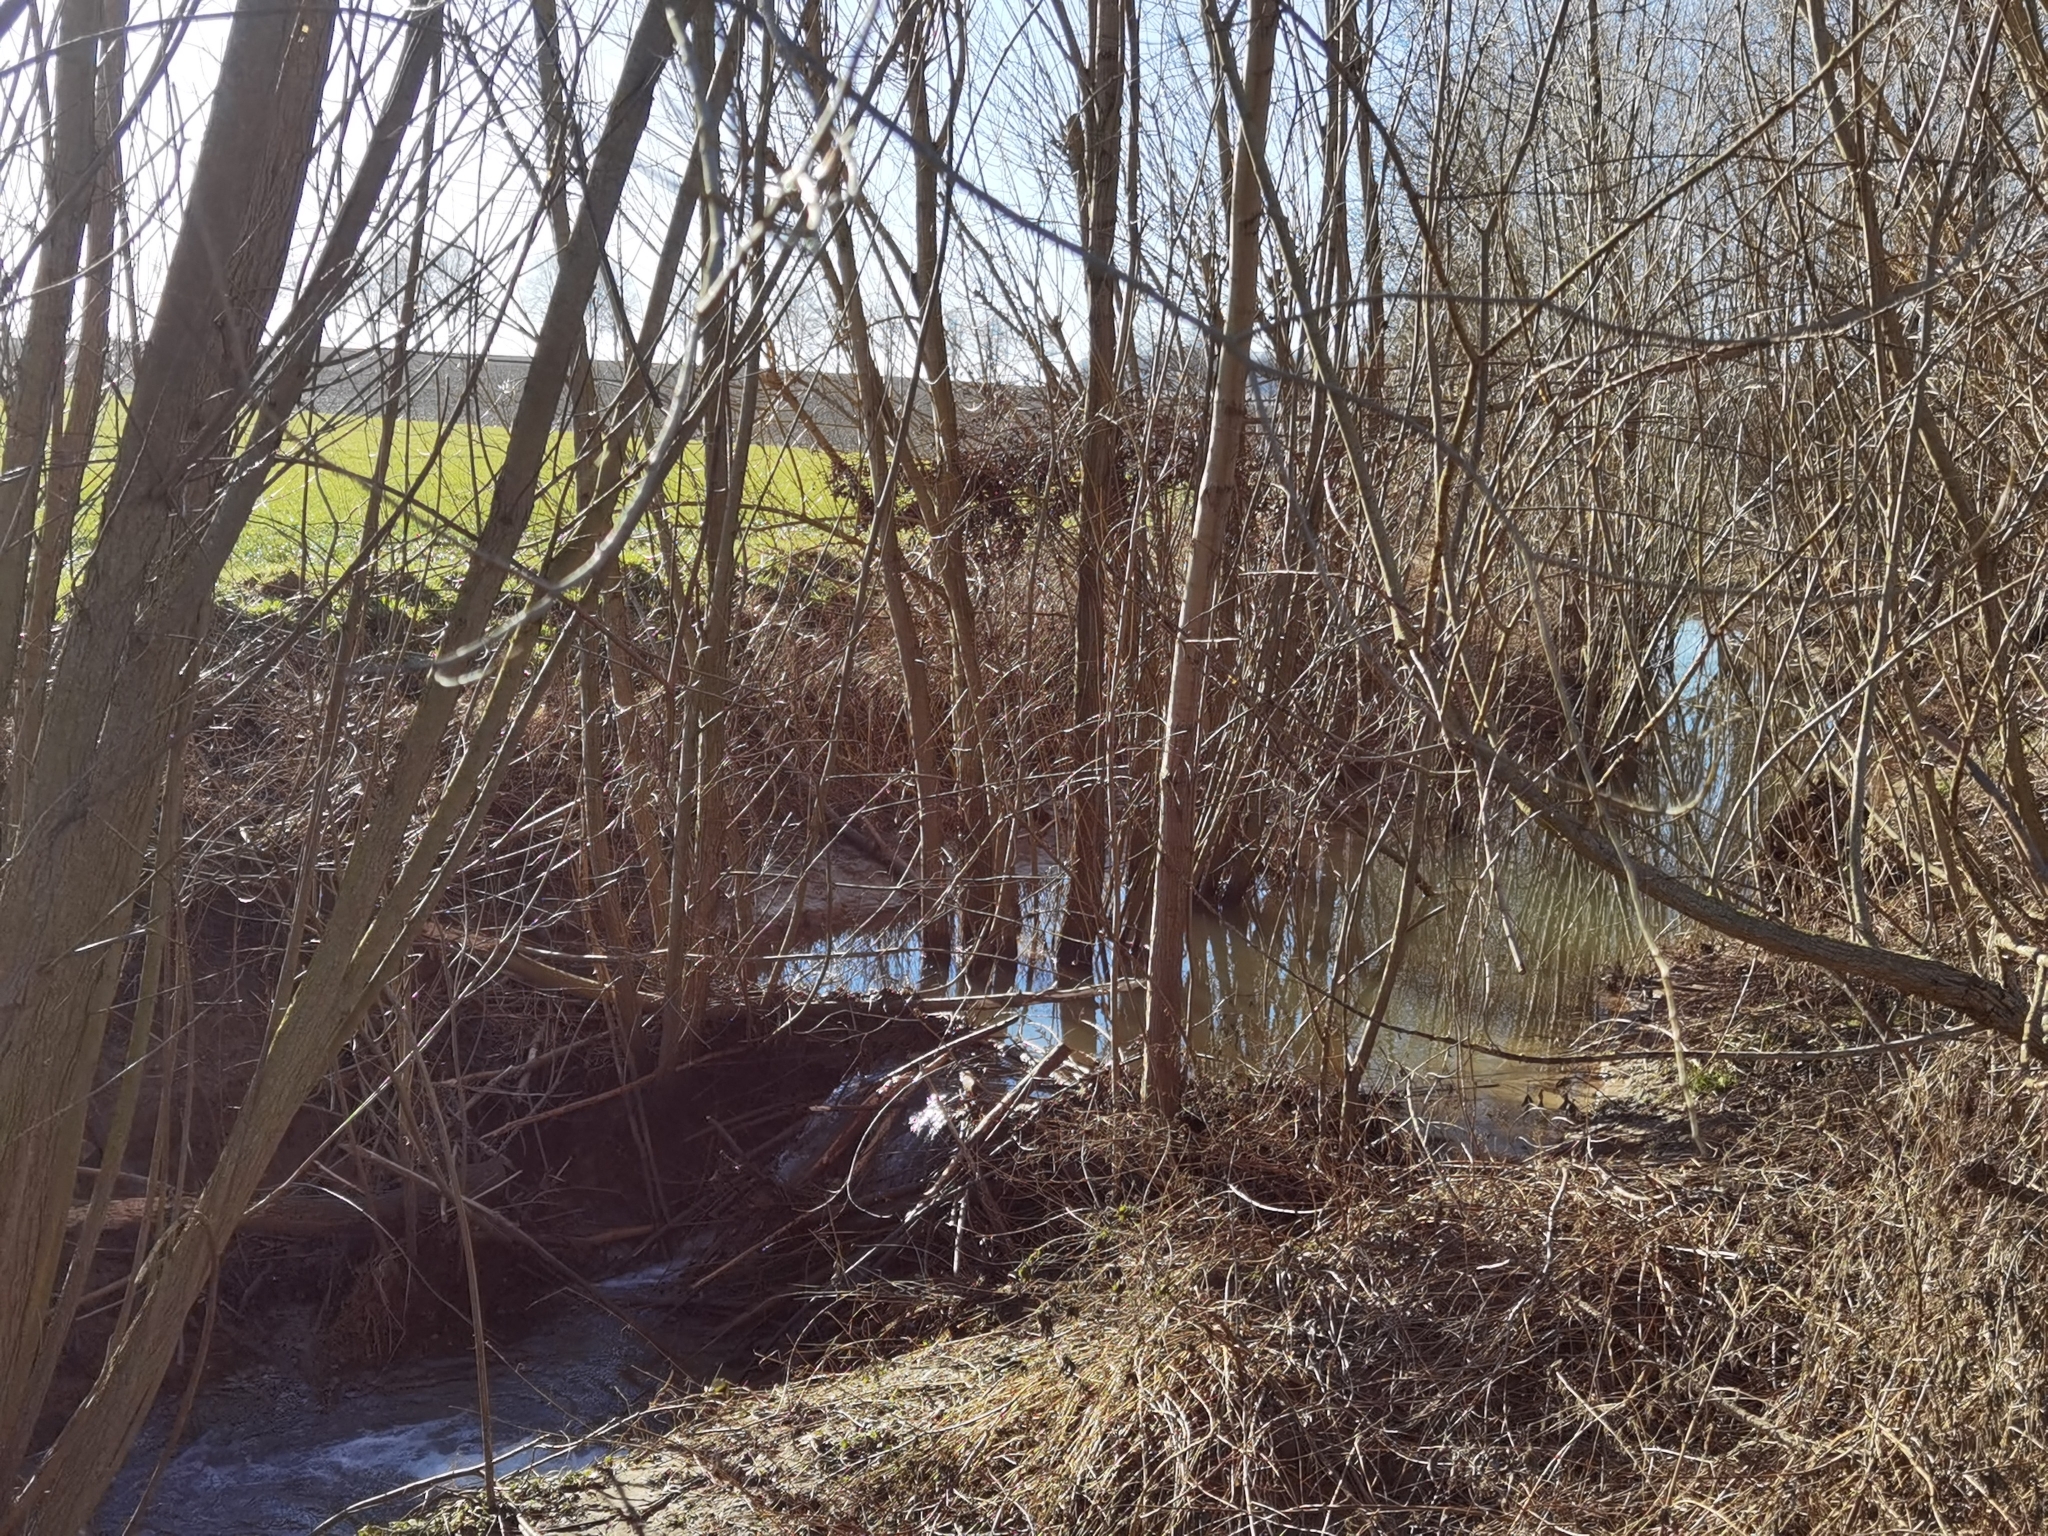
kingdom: Animalia
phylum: Chordata
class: Mammalia
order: Rodentia
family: Castoridae
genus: Castor
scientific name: Castor fiber
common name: Eurasian beaver
